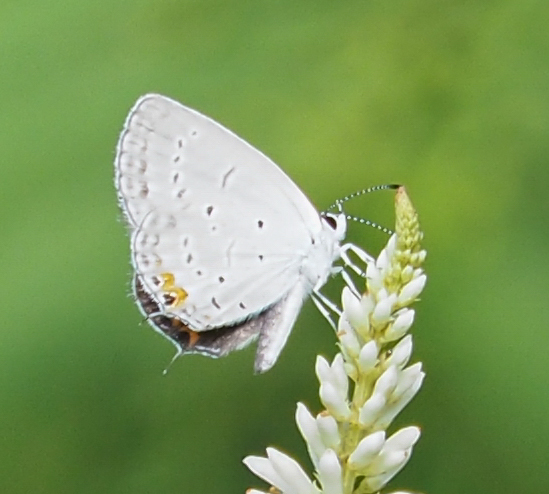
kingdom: Animalia
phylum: Arthropoda
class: Insecta
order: Lepidoptera
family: Lycaenidae
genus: Elkalyce
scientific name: Elkalyce comyntas
